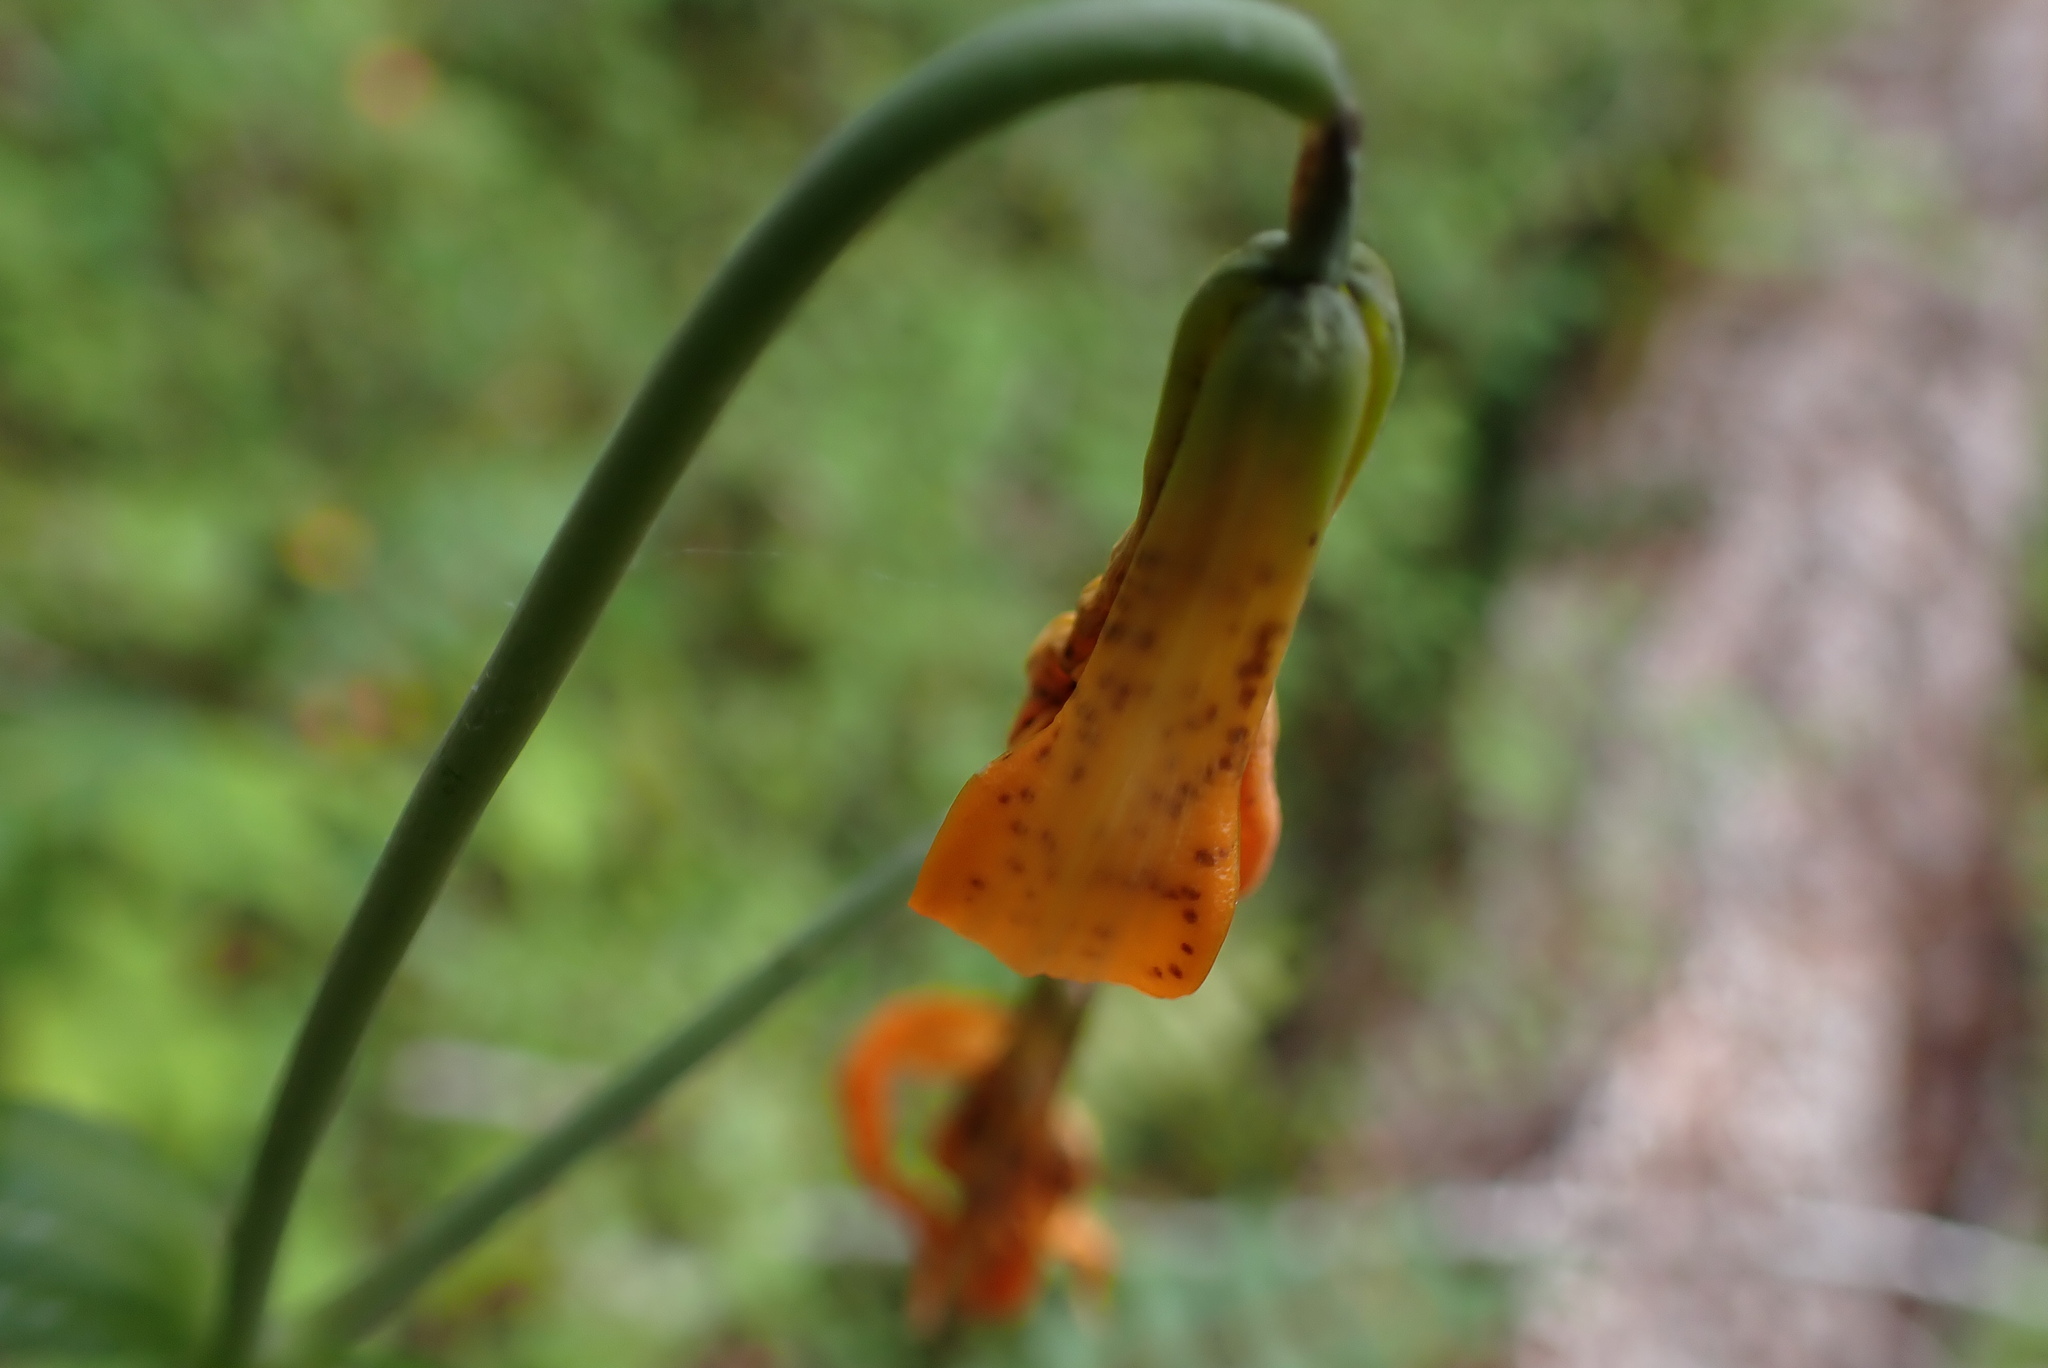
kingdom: Plantae
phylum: Tracheophyta
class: Liliopsida
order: Liliales
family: Liliaceae
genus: Lilium
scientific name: Lilium columbianum
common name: Columbia lily
